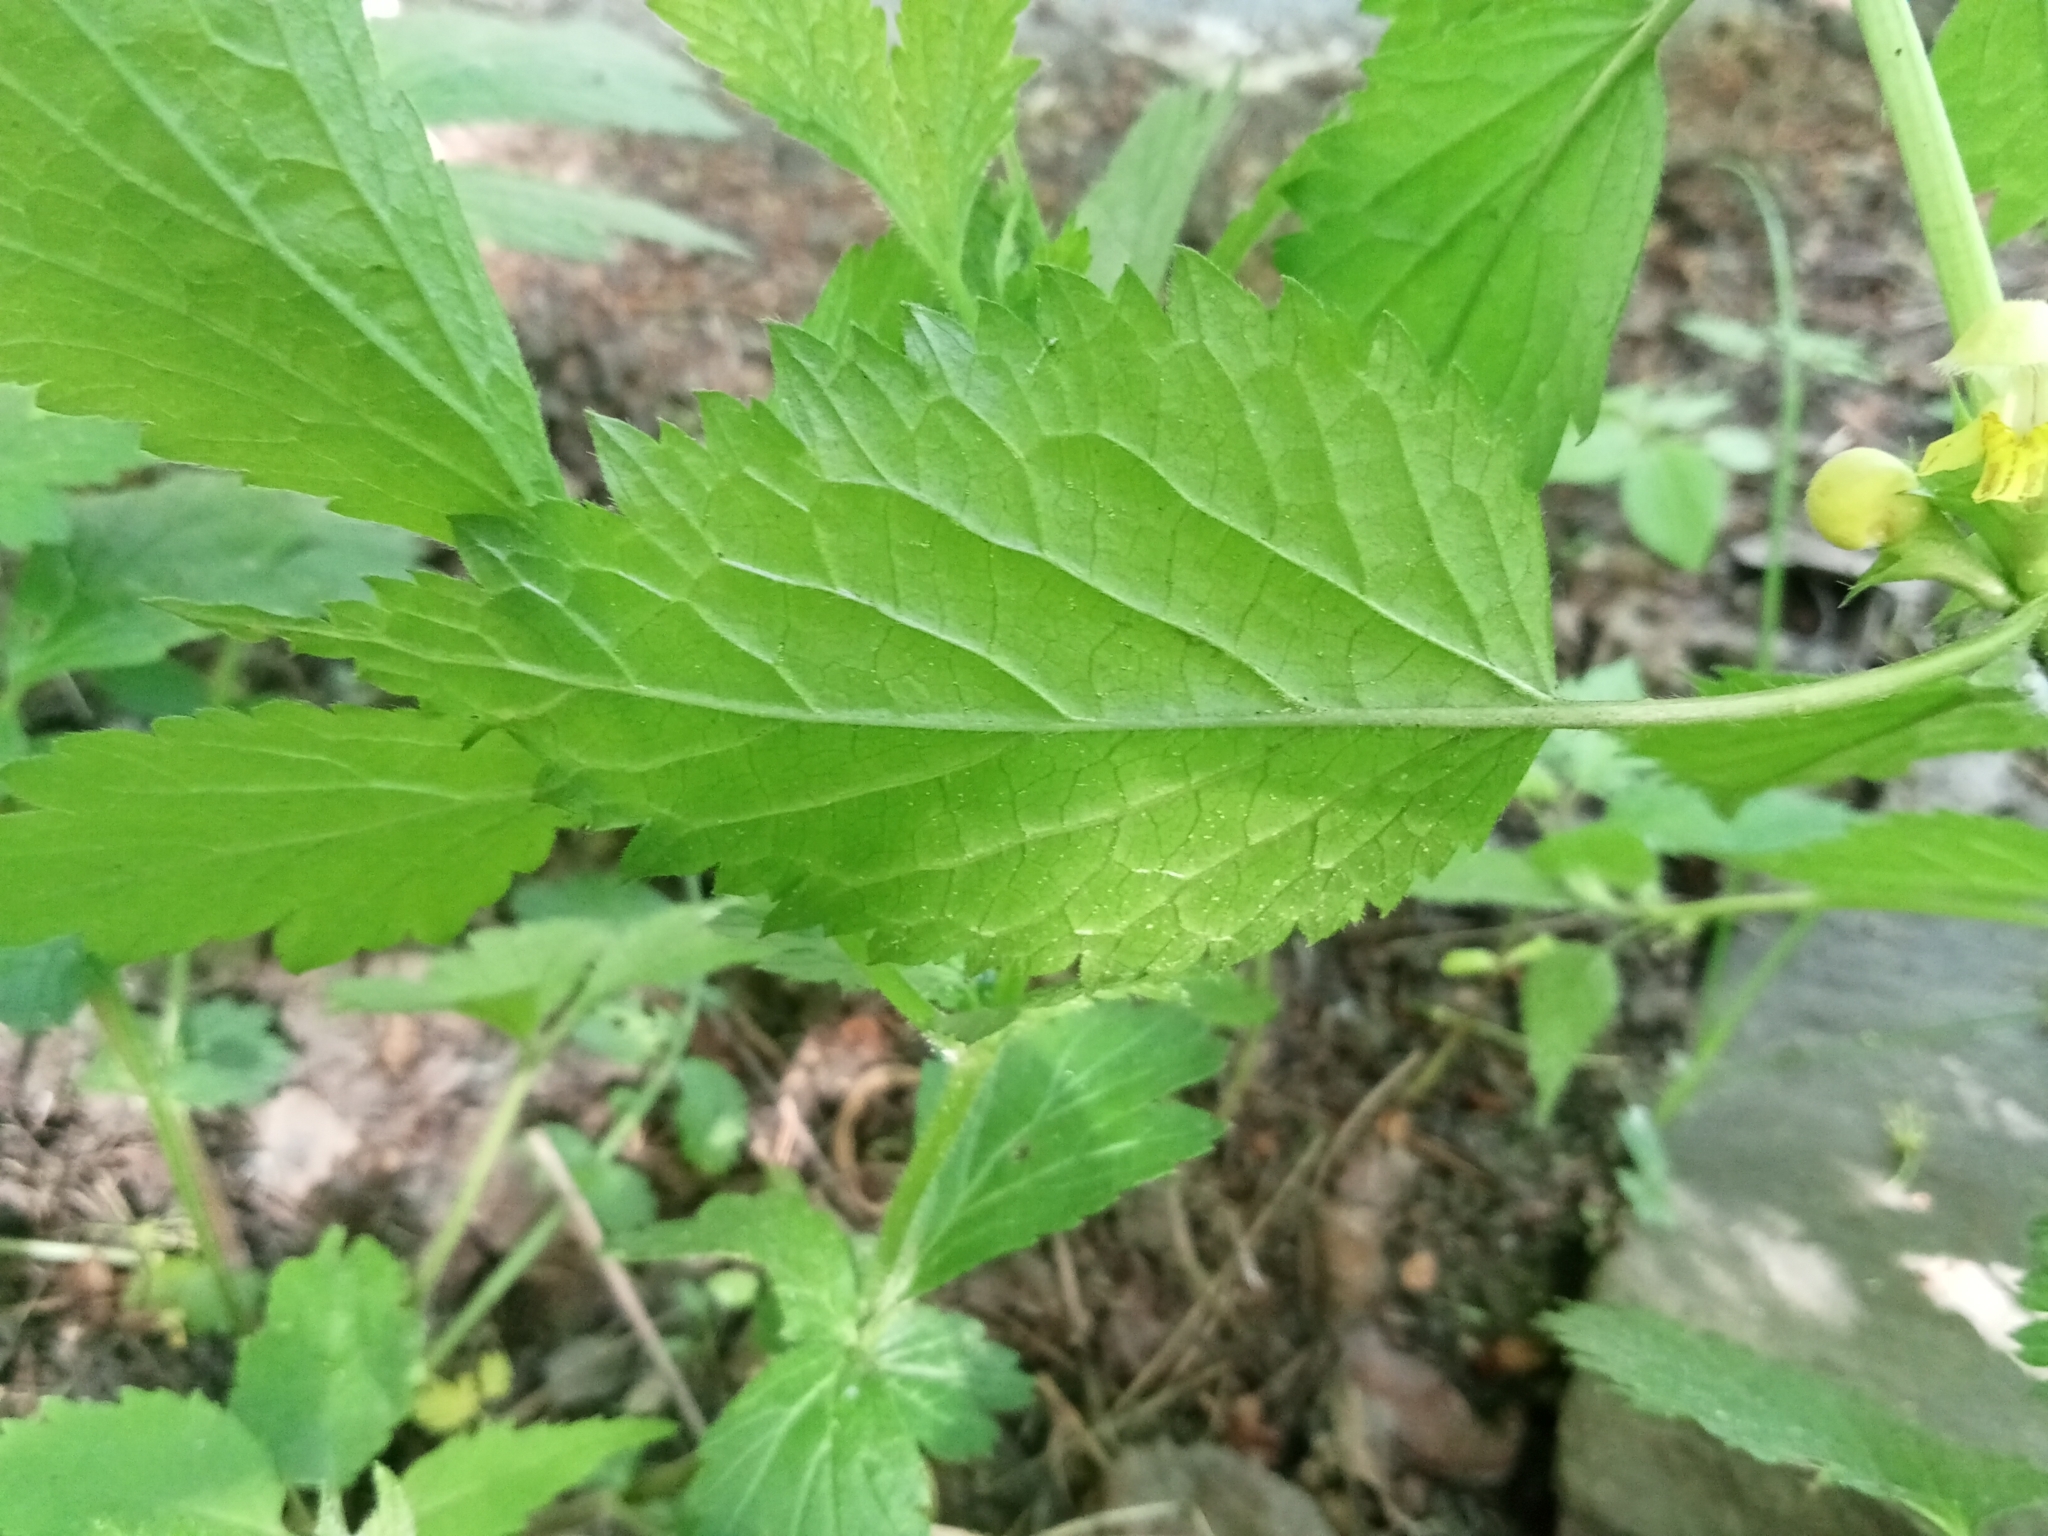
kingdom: Plantae
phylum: Tracheophyta
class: Magnoliopsida
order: Lamiales
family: Lamiaceae
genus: Lamium
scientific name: Lamium galeobdolon
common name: Yellow archangel
